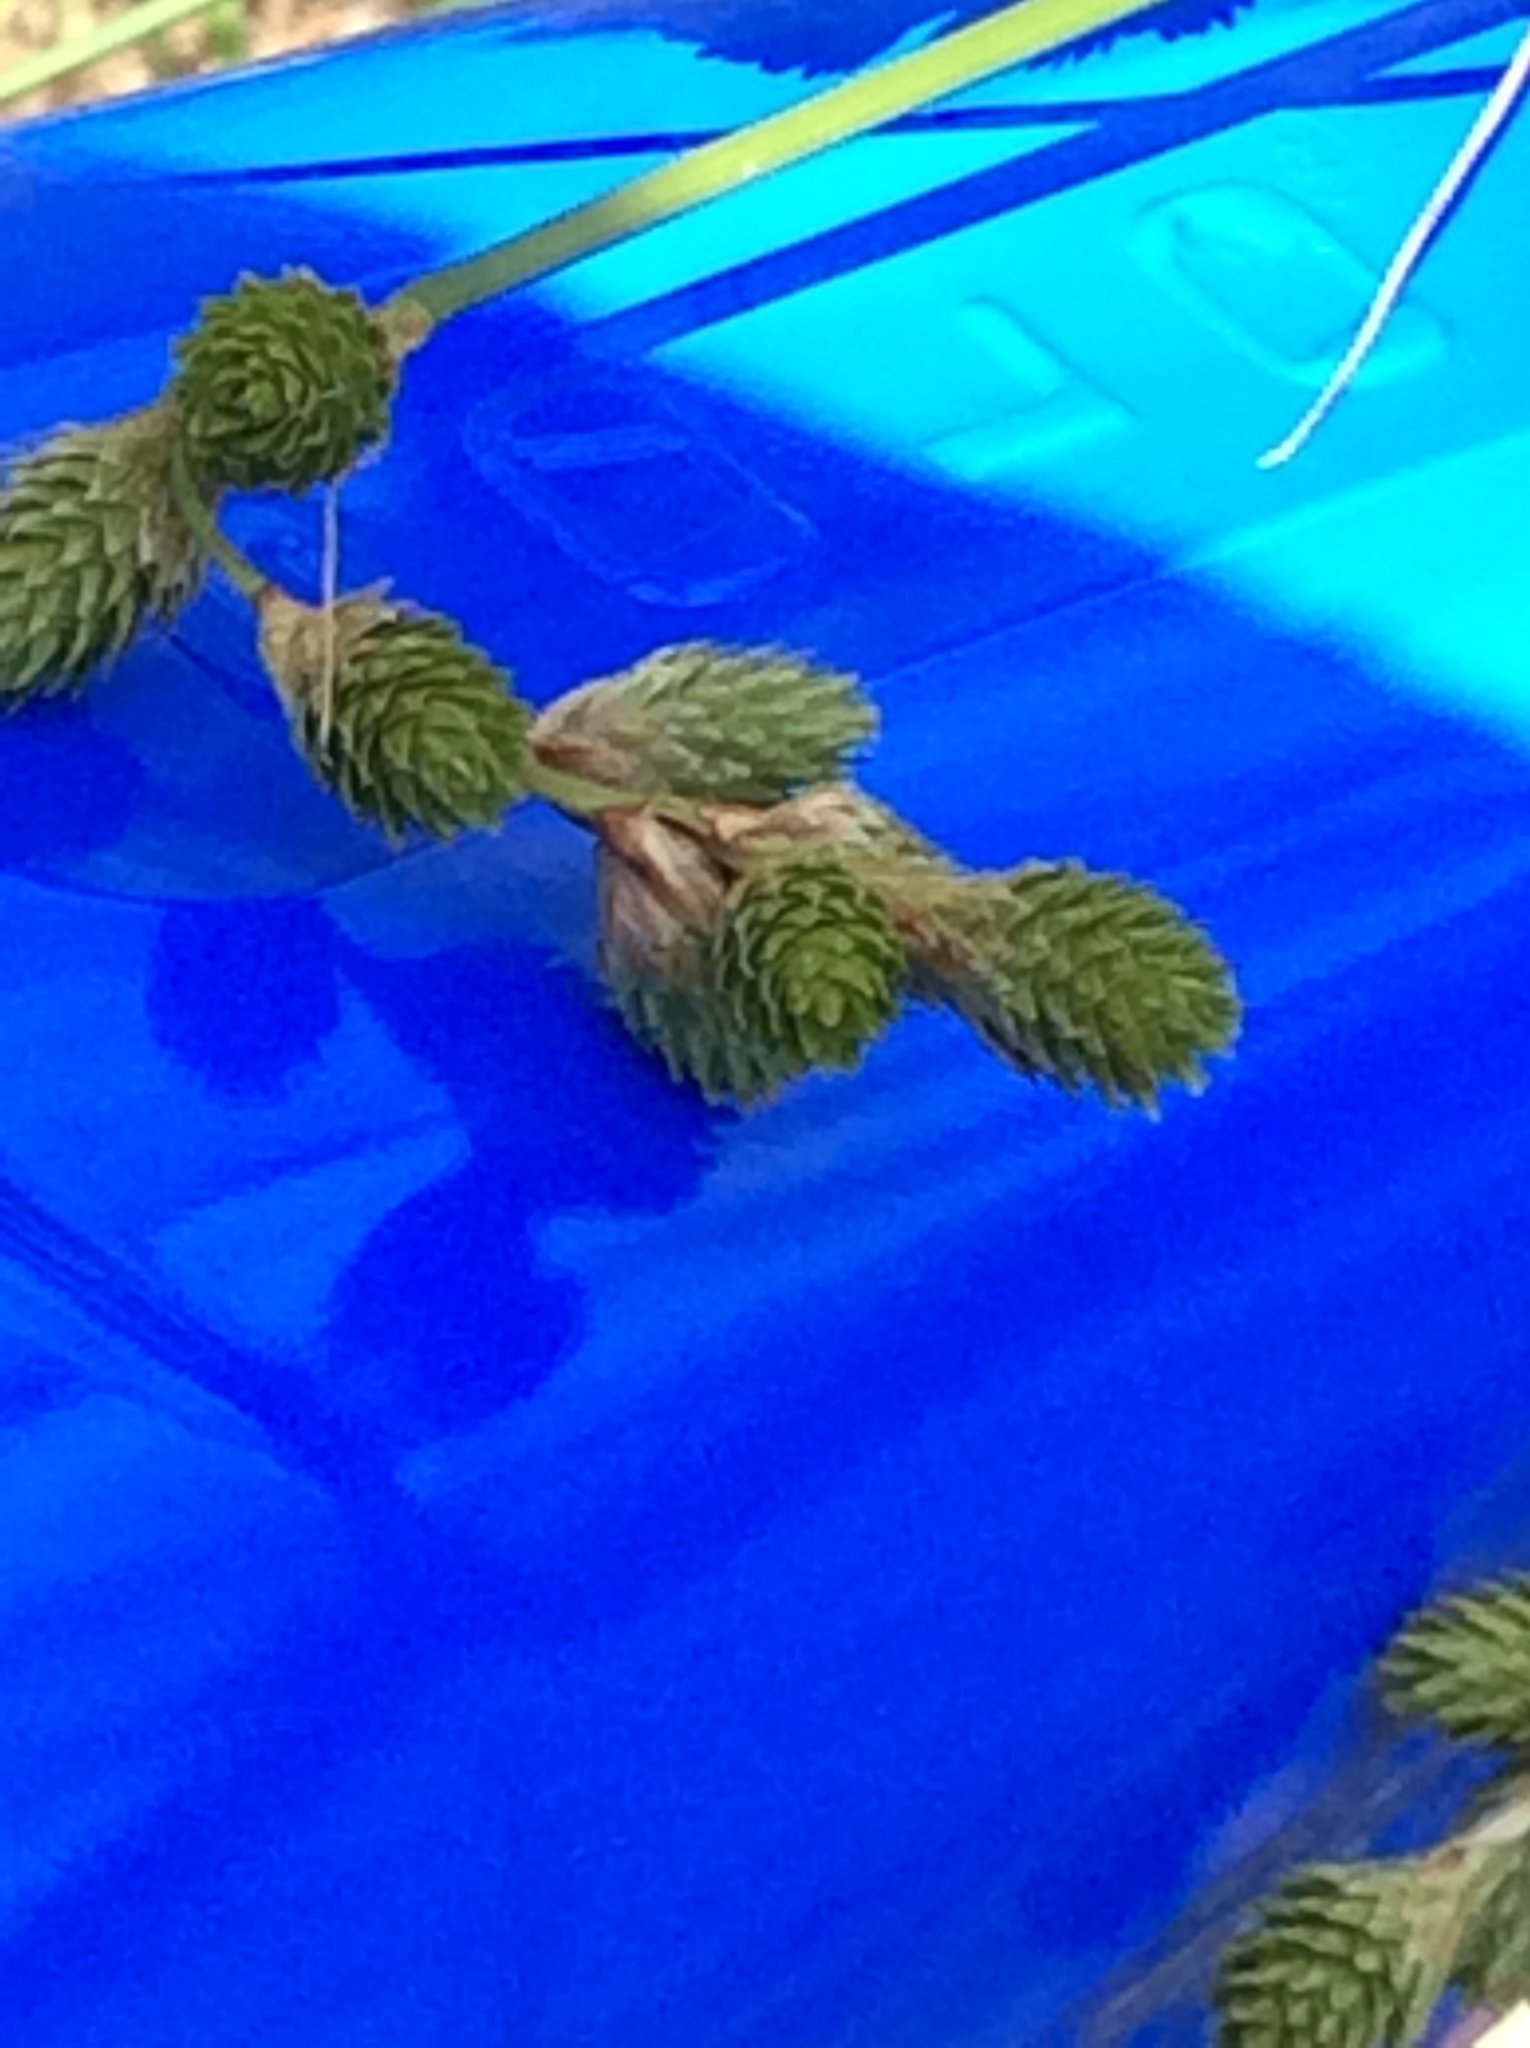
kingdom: Plantae
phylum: Tracheophyta
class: Liliopsida
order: Poales
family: Cyperaceae
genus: Carex
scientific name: Carex tetrastachya
